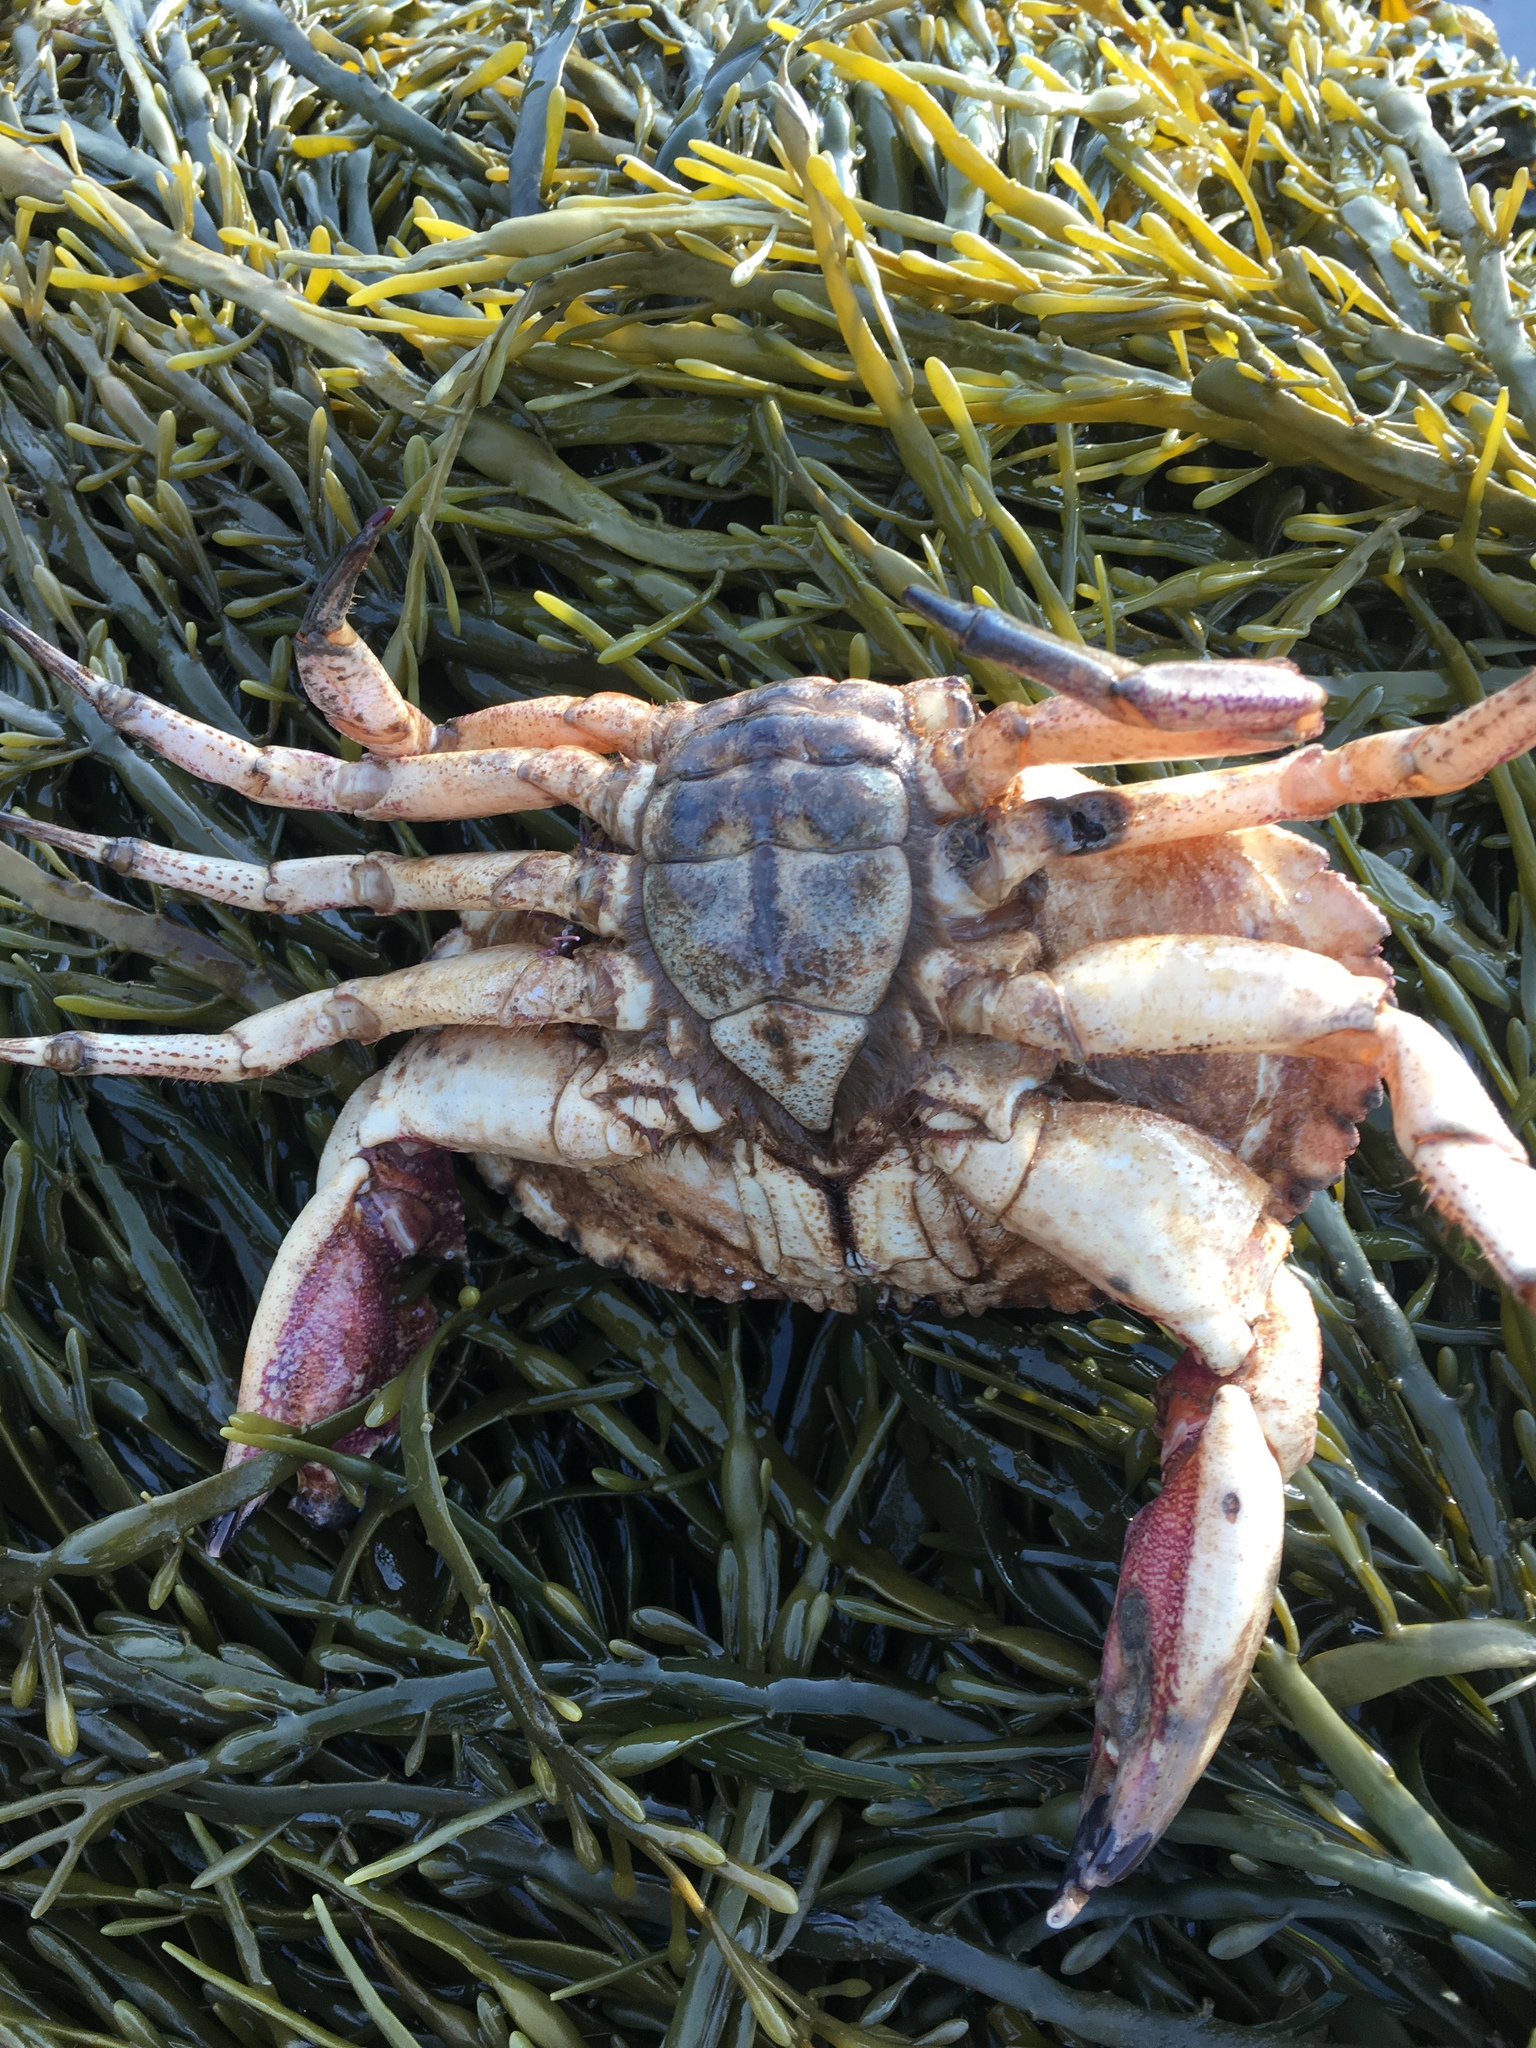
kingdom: Animalia
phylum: Arthropoda
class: Malacostraca
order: Decapoda
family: Cancridae
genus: Cancer
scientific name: Cancer borealis
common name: Jonah crab
